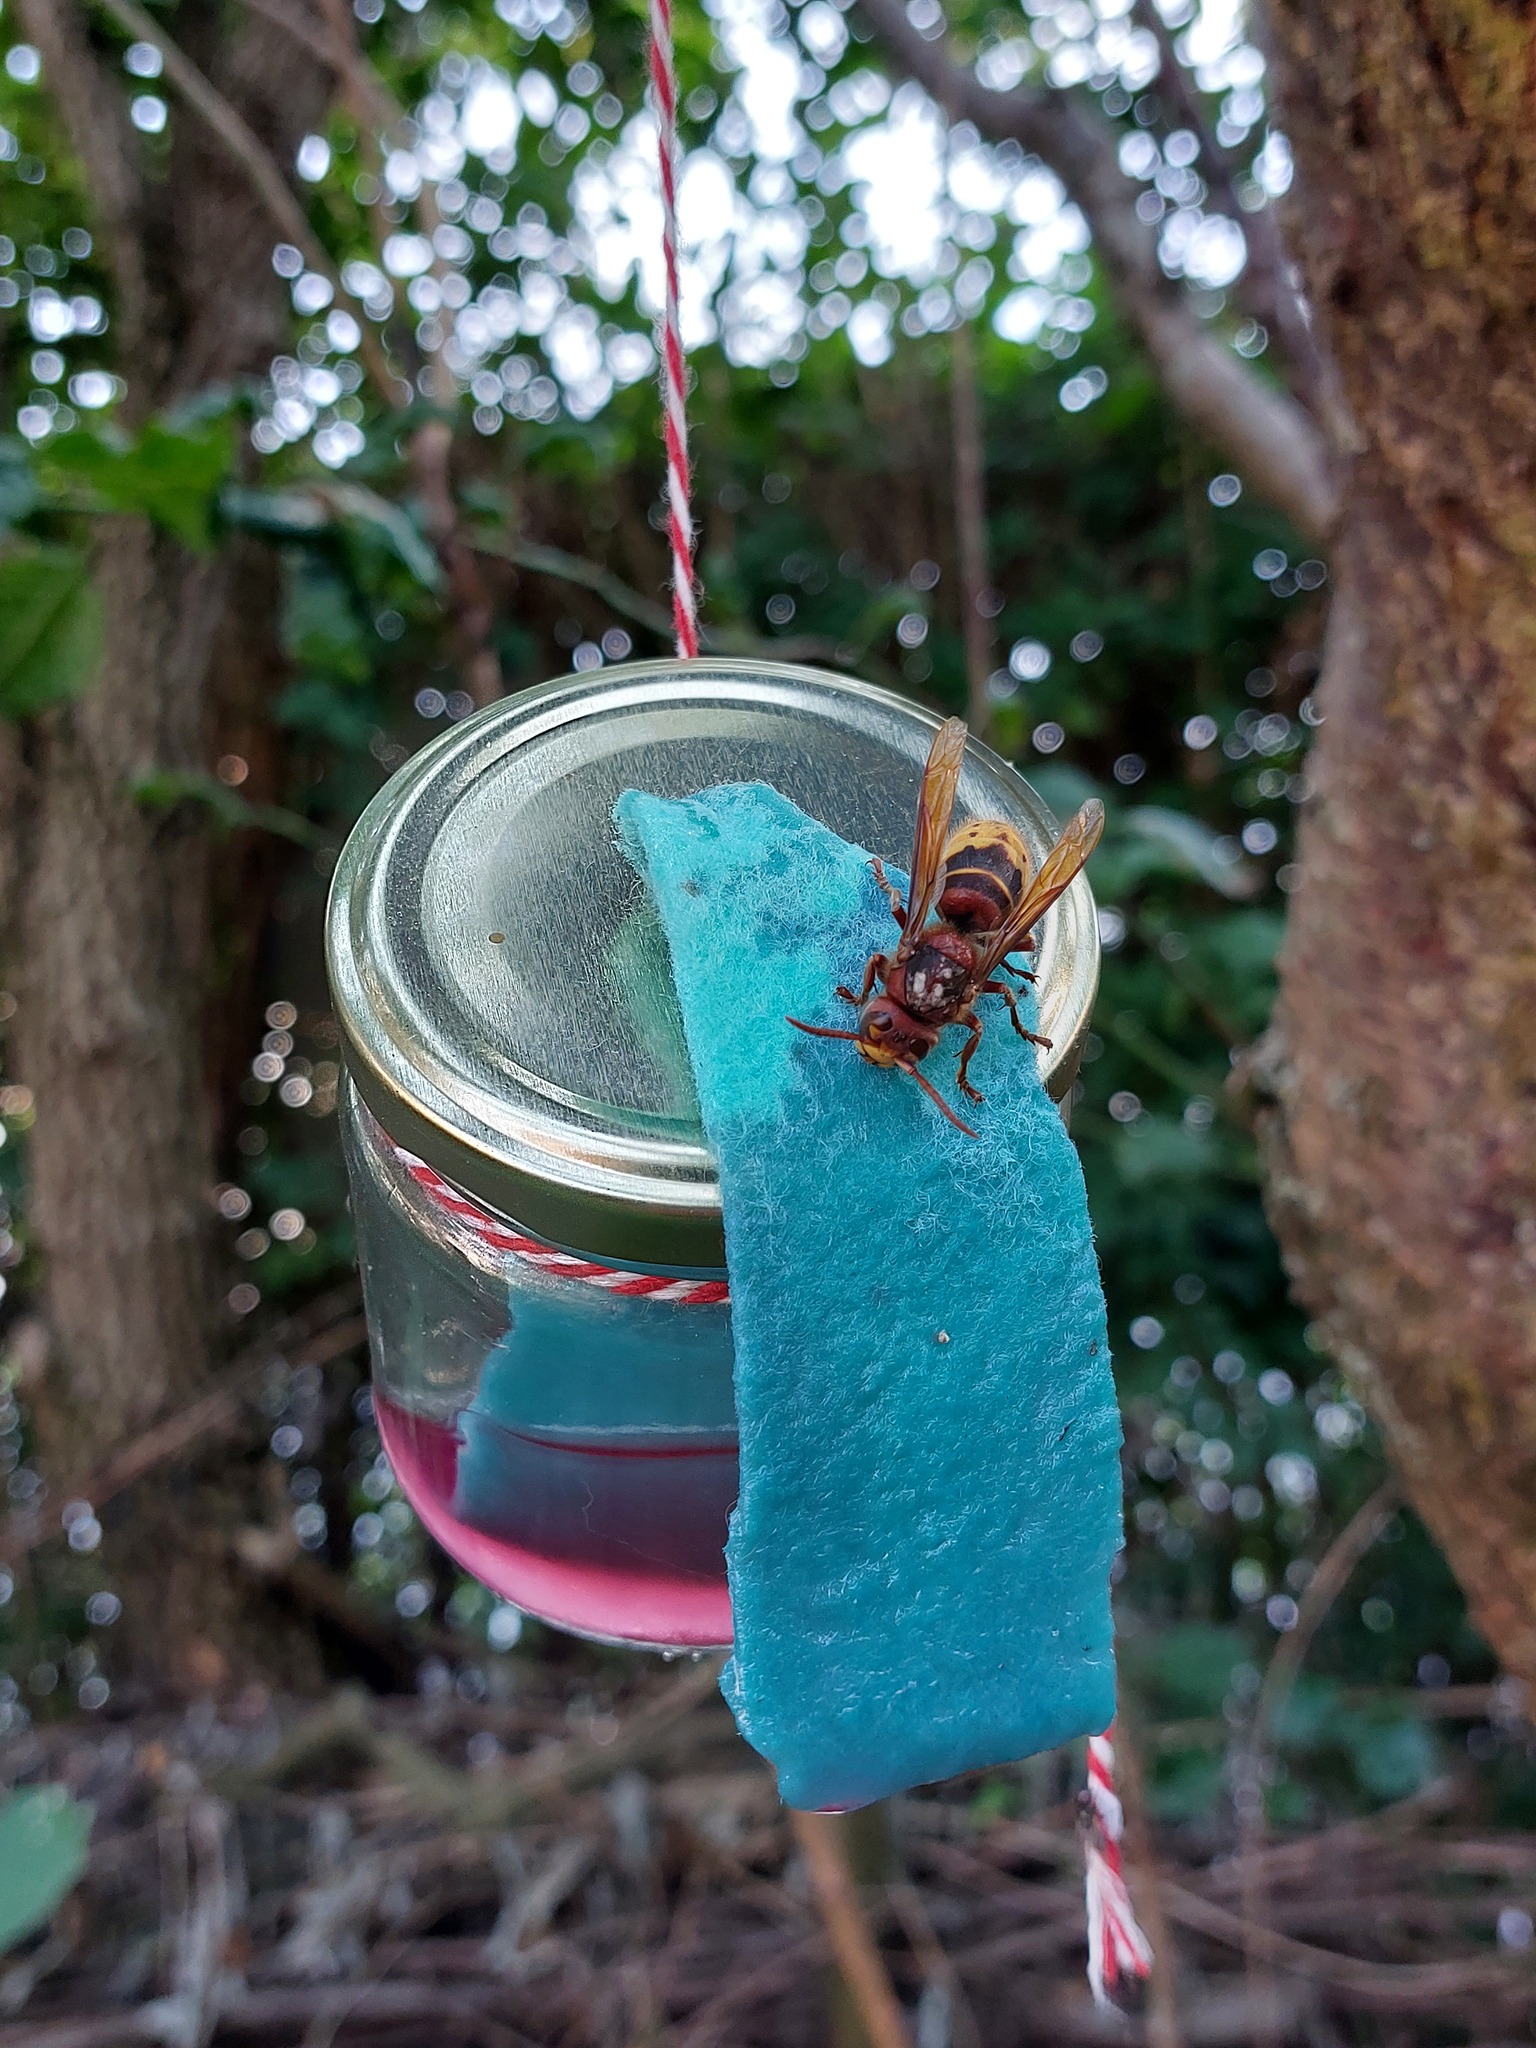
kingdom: Animalia
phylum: Arthropoda
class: Insecta
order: Hymenoptera
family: Vespidae
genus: Vespa
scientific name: Vespa crabro
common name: Hornet
